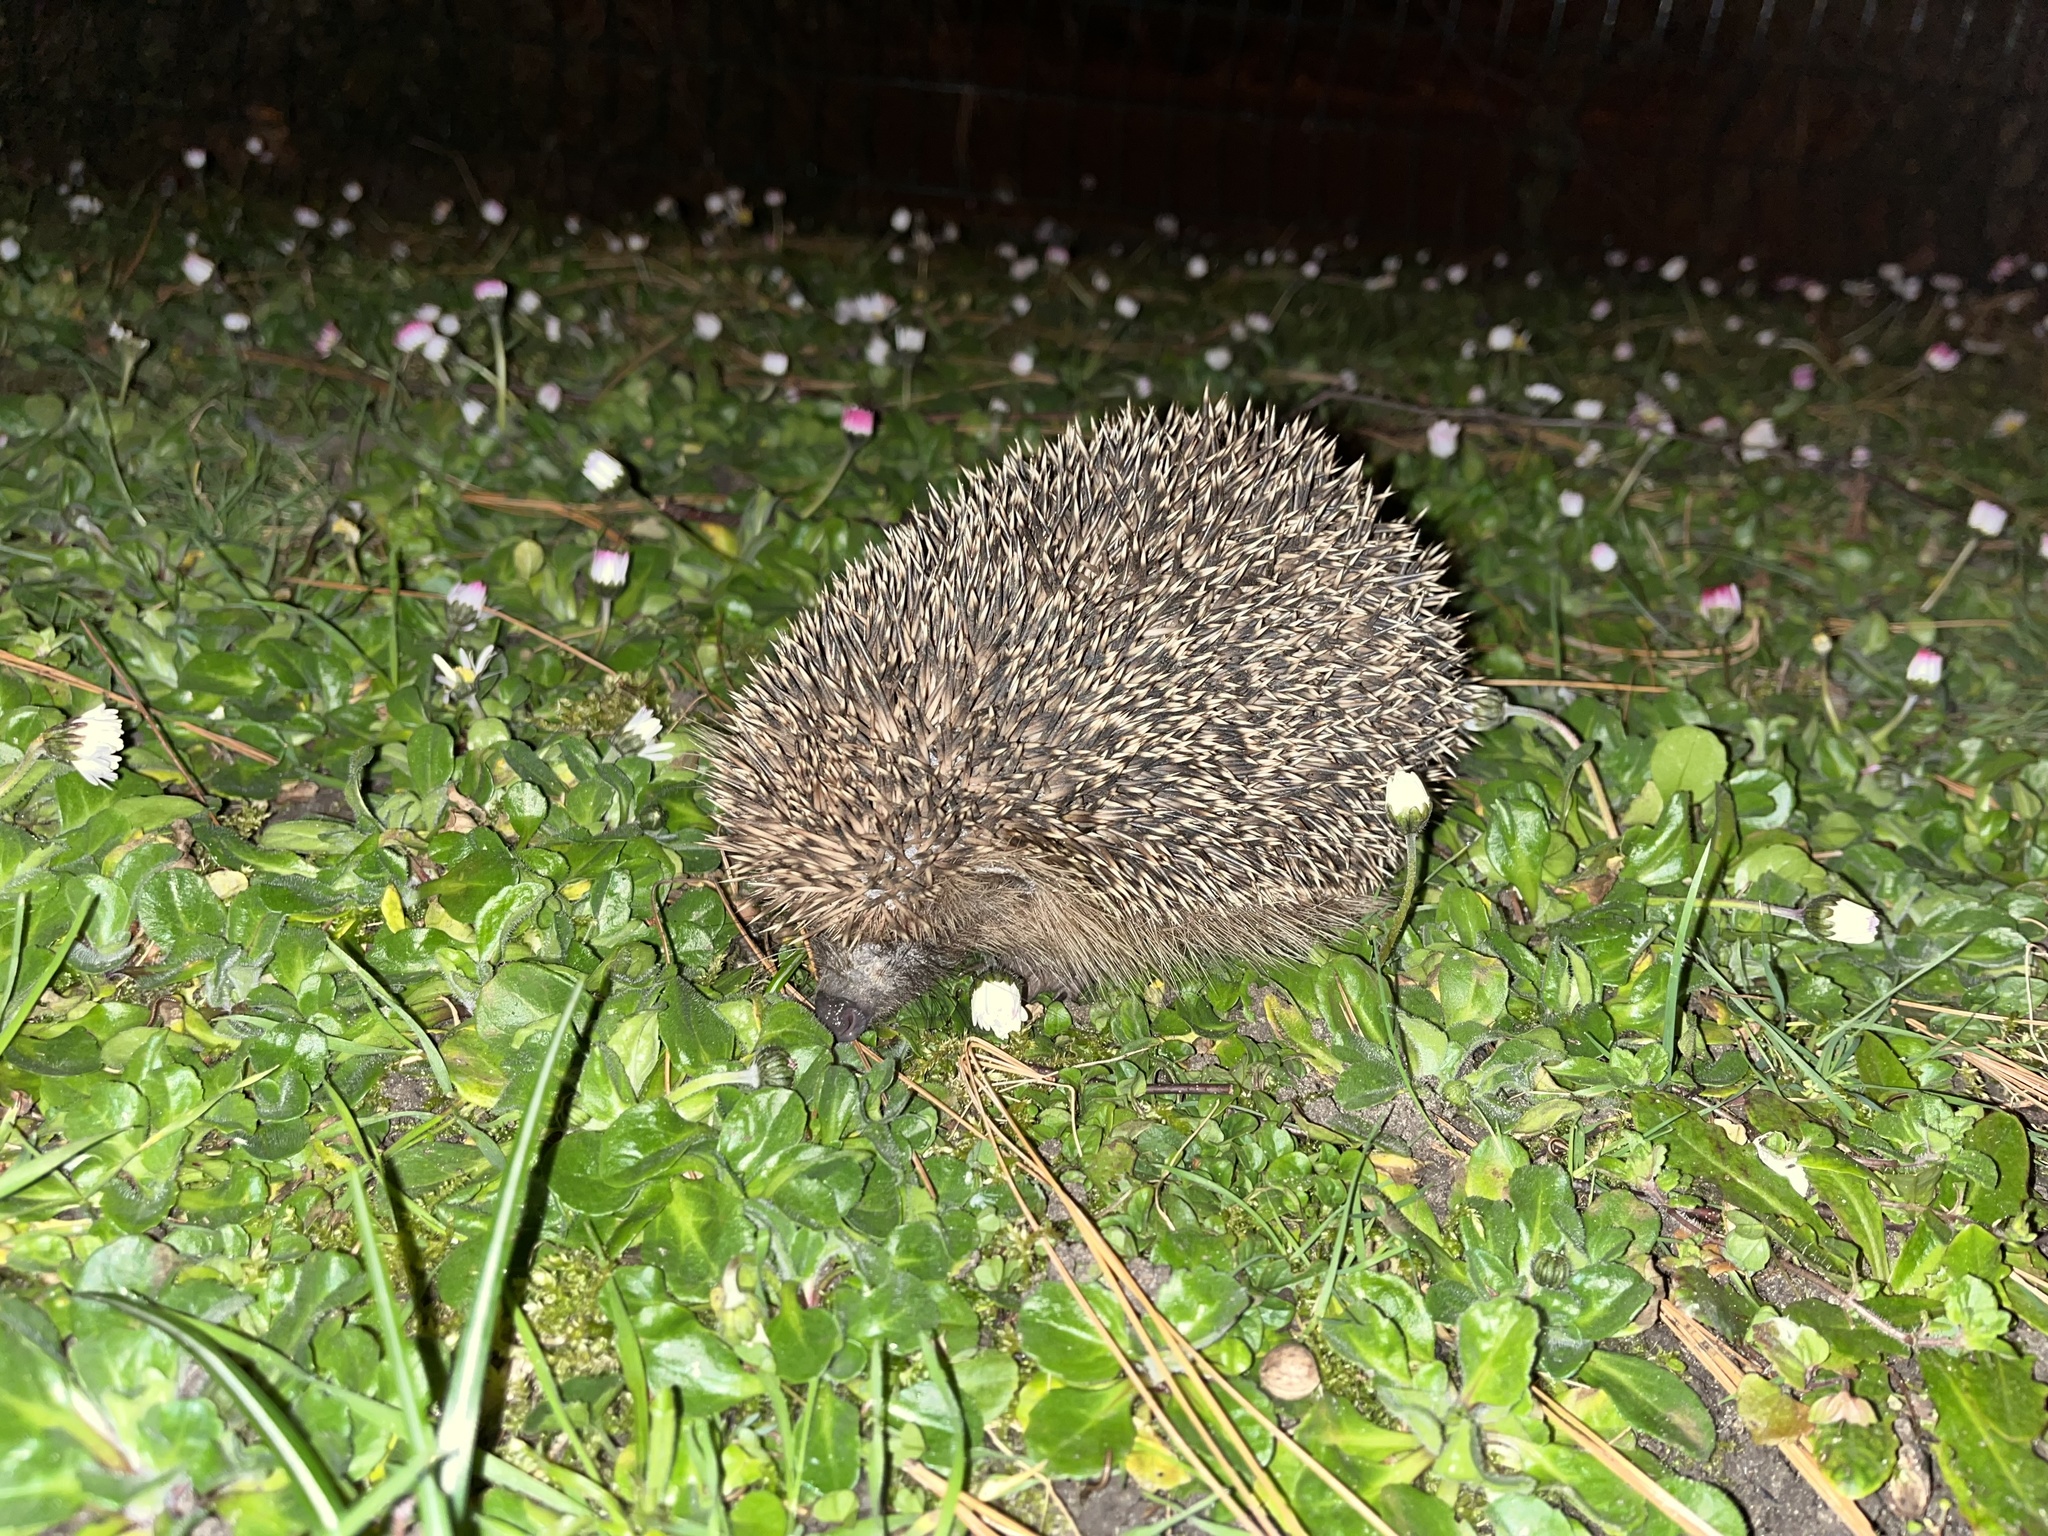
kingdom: Animalia
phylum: Chordata
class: Mammalia
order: Erinaceomorpha
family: Erinaceidae
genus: Erinaceus
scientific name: Erinaceus europaeus
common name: West european hedgehog
